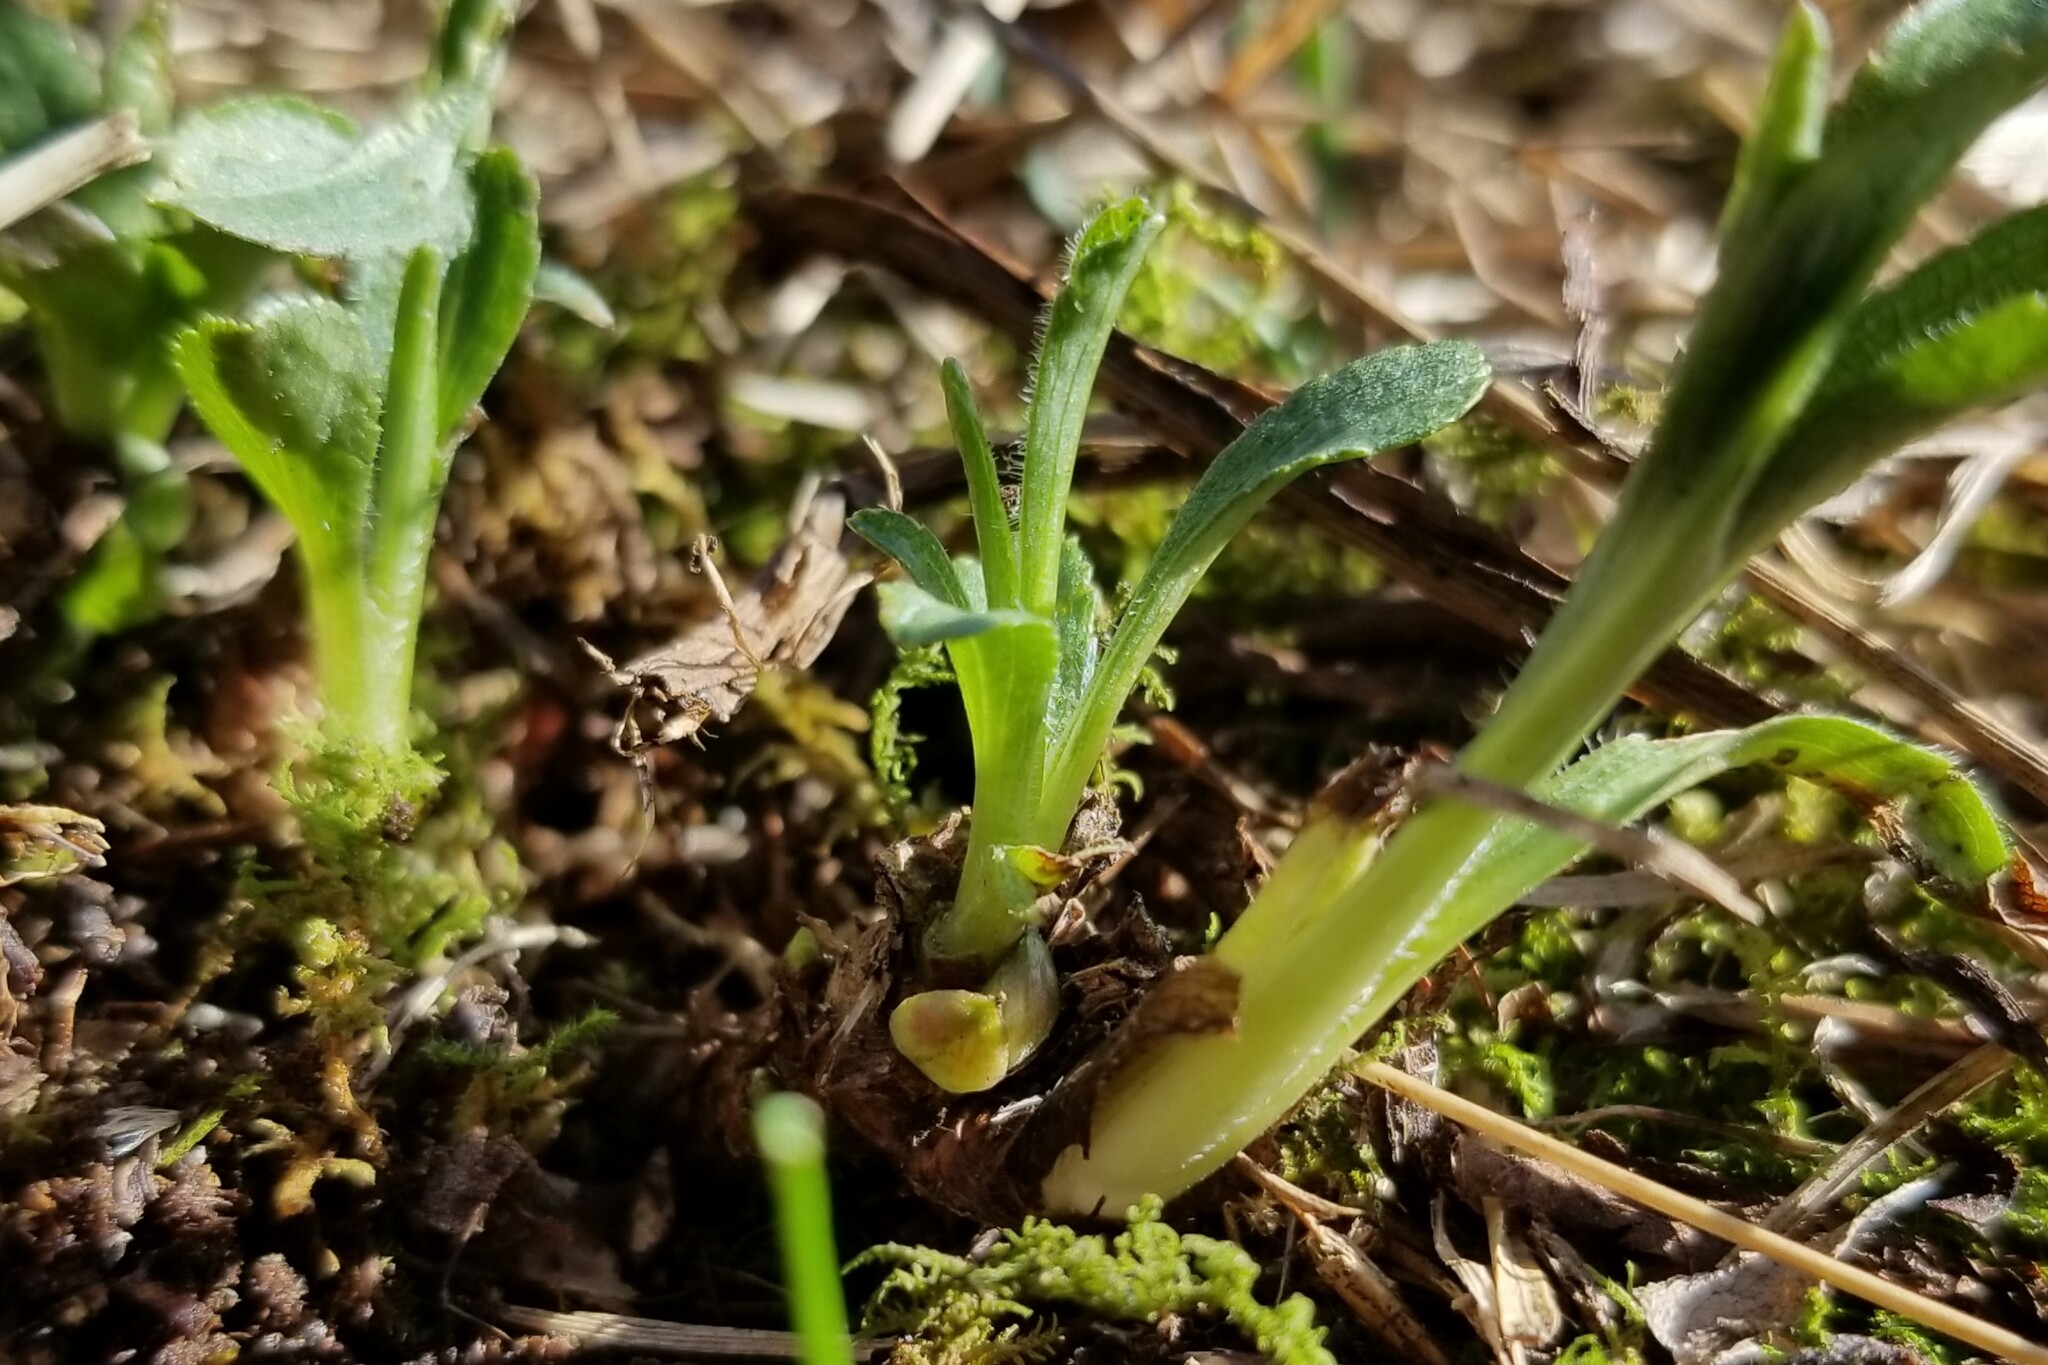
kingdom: Animalia
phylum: Arthropoda
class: Insecta
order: Diptera
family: Cecidomyiidae
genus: Rhopalomyia
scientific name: Rhopalomyia bulbula
